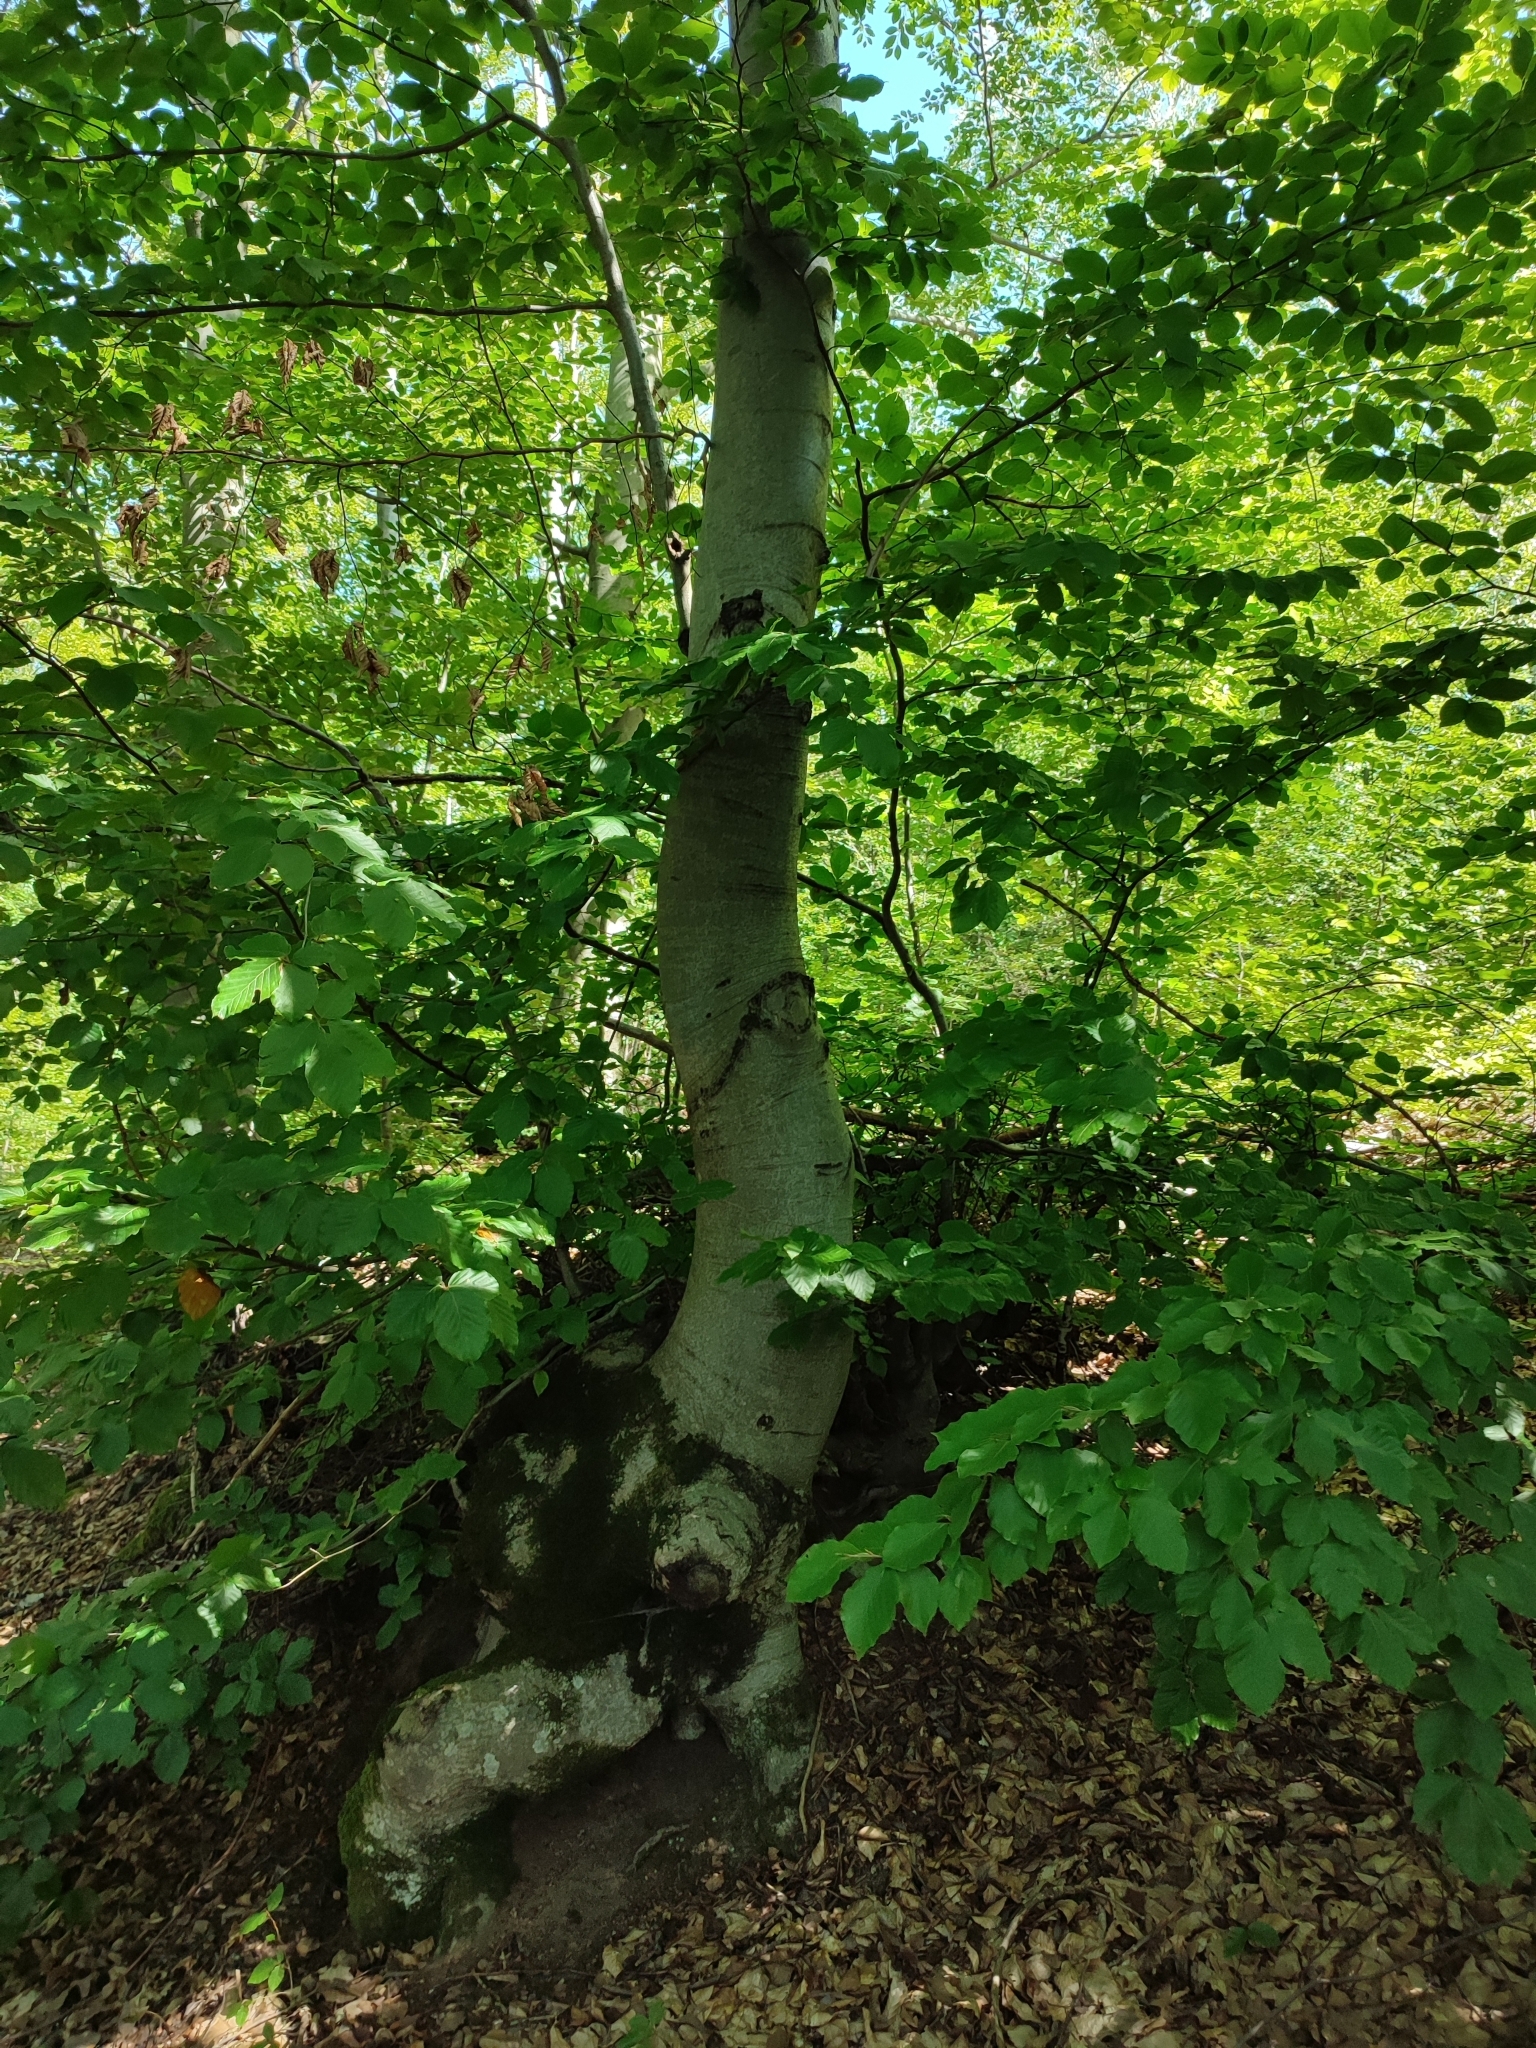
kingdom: Plantae
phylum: Tracheophyta
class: Magnoliopsida
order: Fagales
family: Fagaceae
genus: Fagus
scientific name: Fagus sylvatica
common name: Beech
